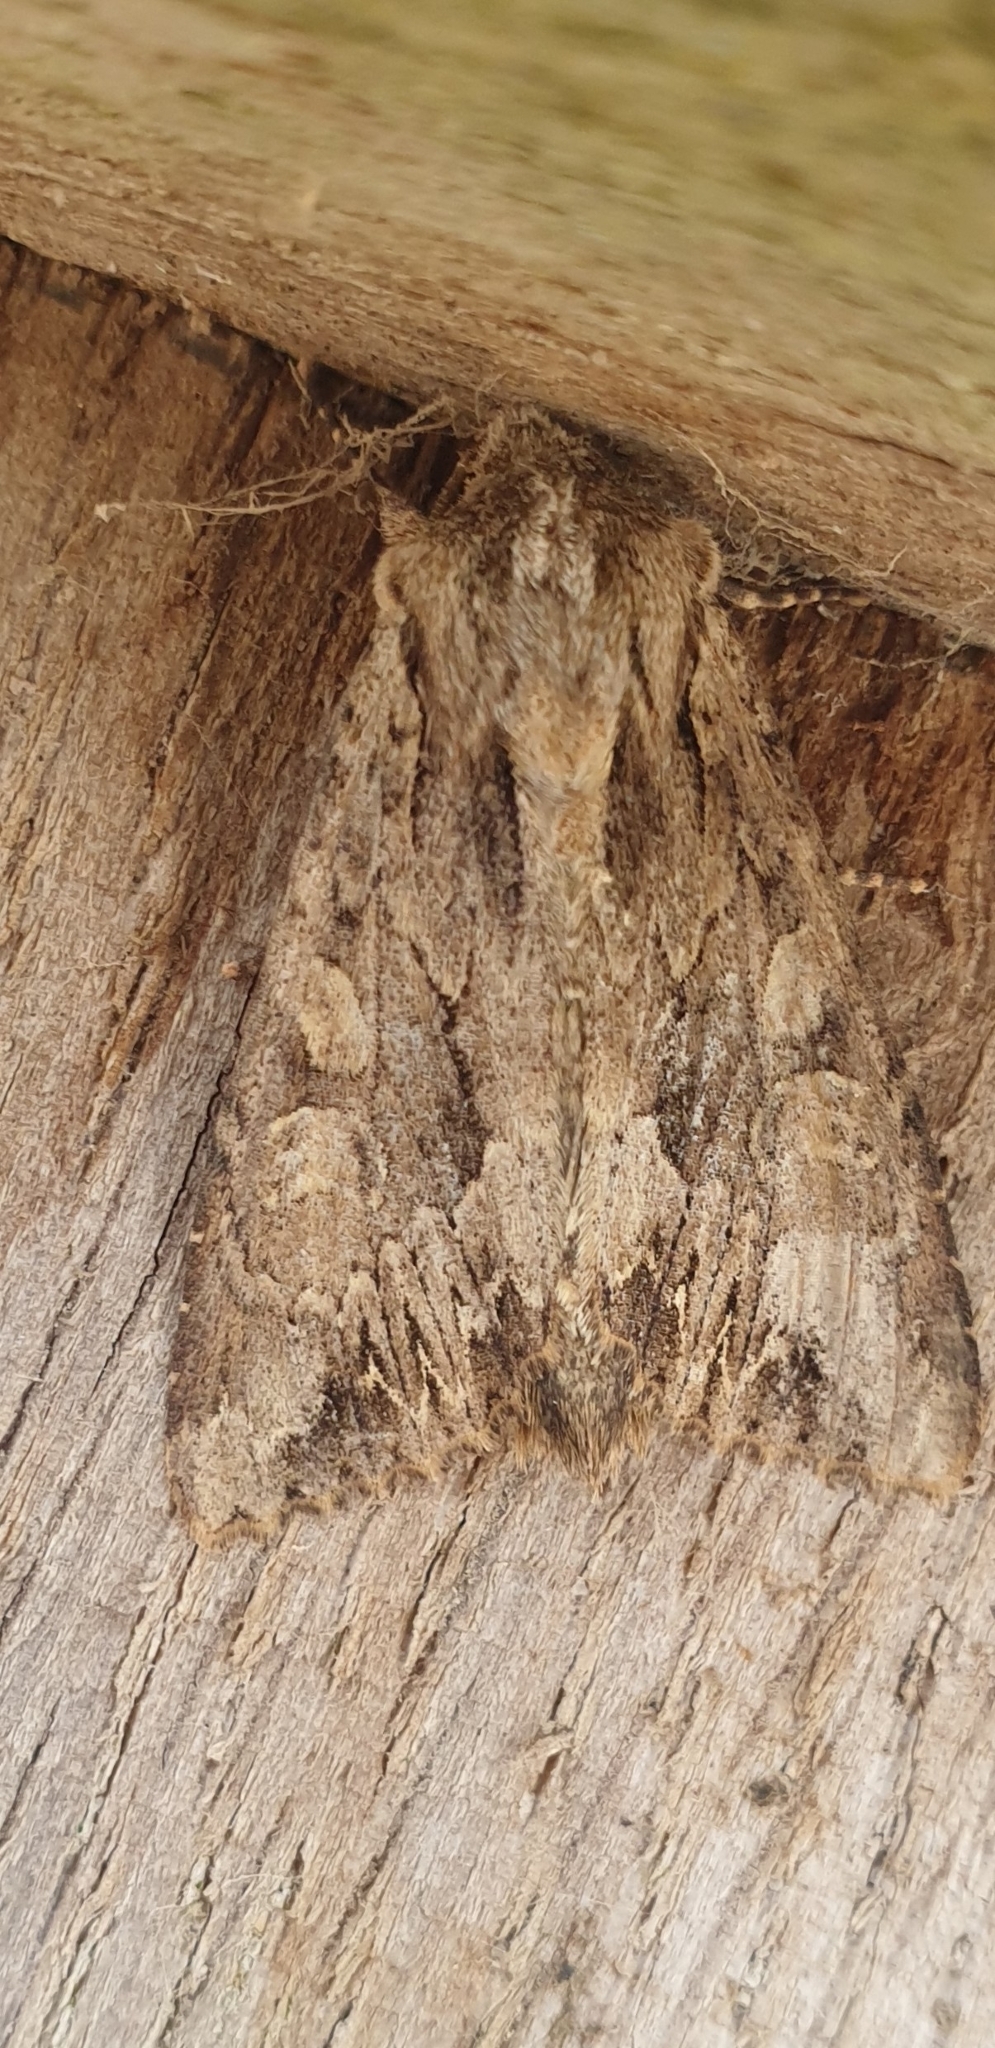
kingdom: Animalia
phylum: Arthropoda
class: Insecta
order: Lepidoptera
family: Noctuidae
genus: Apamea
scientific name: Apamea monoglypha
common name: Dark arches
